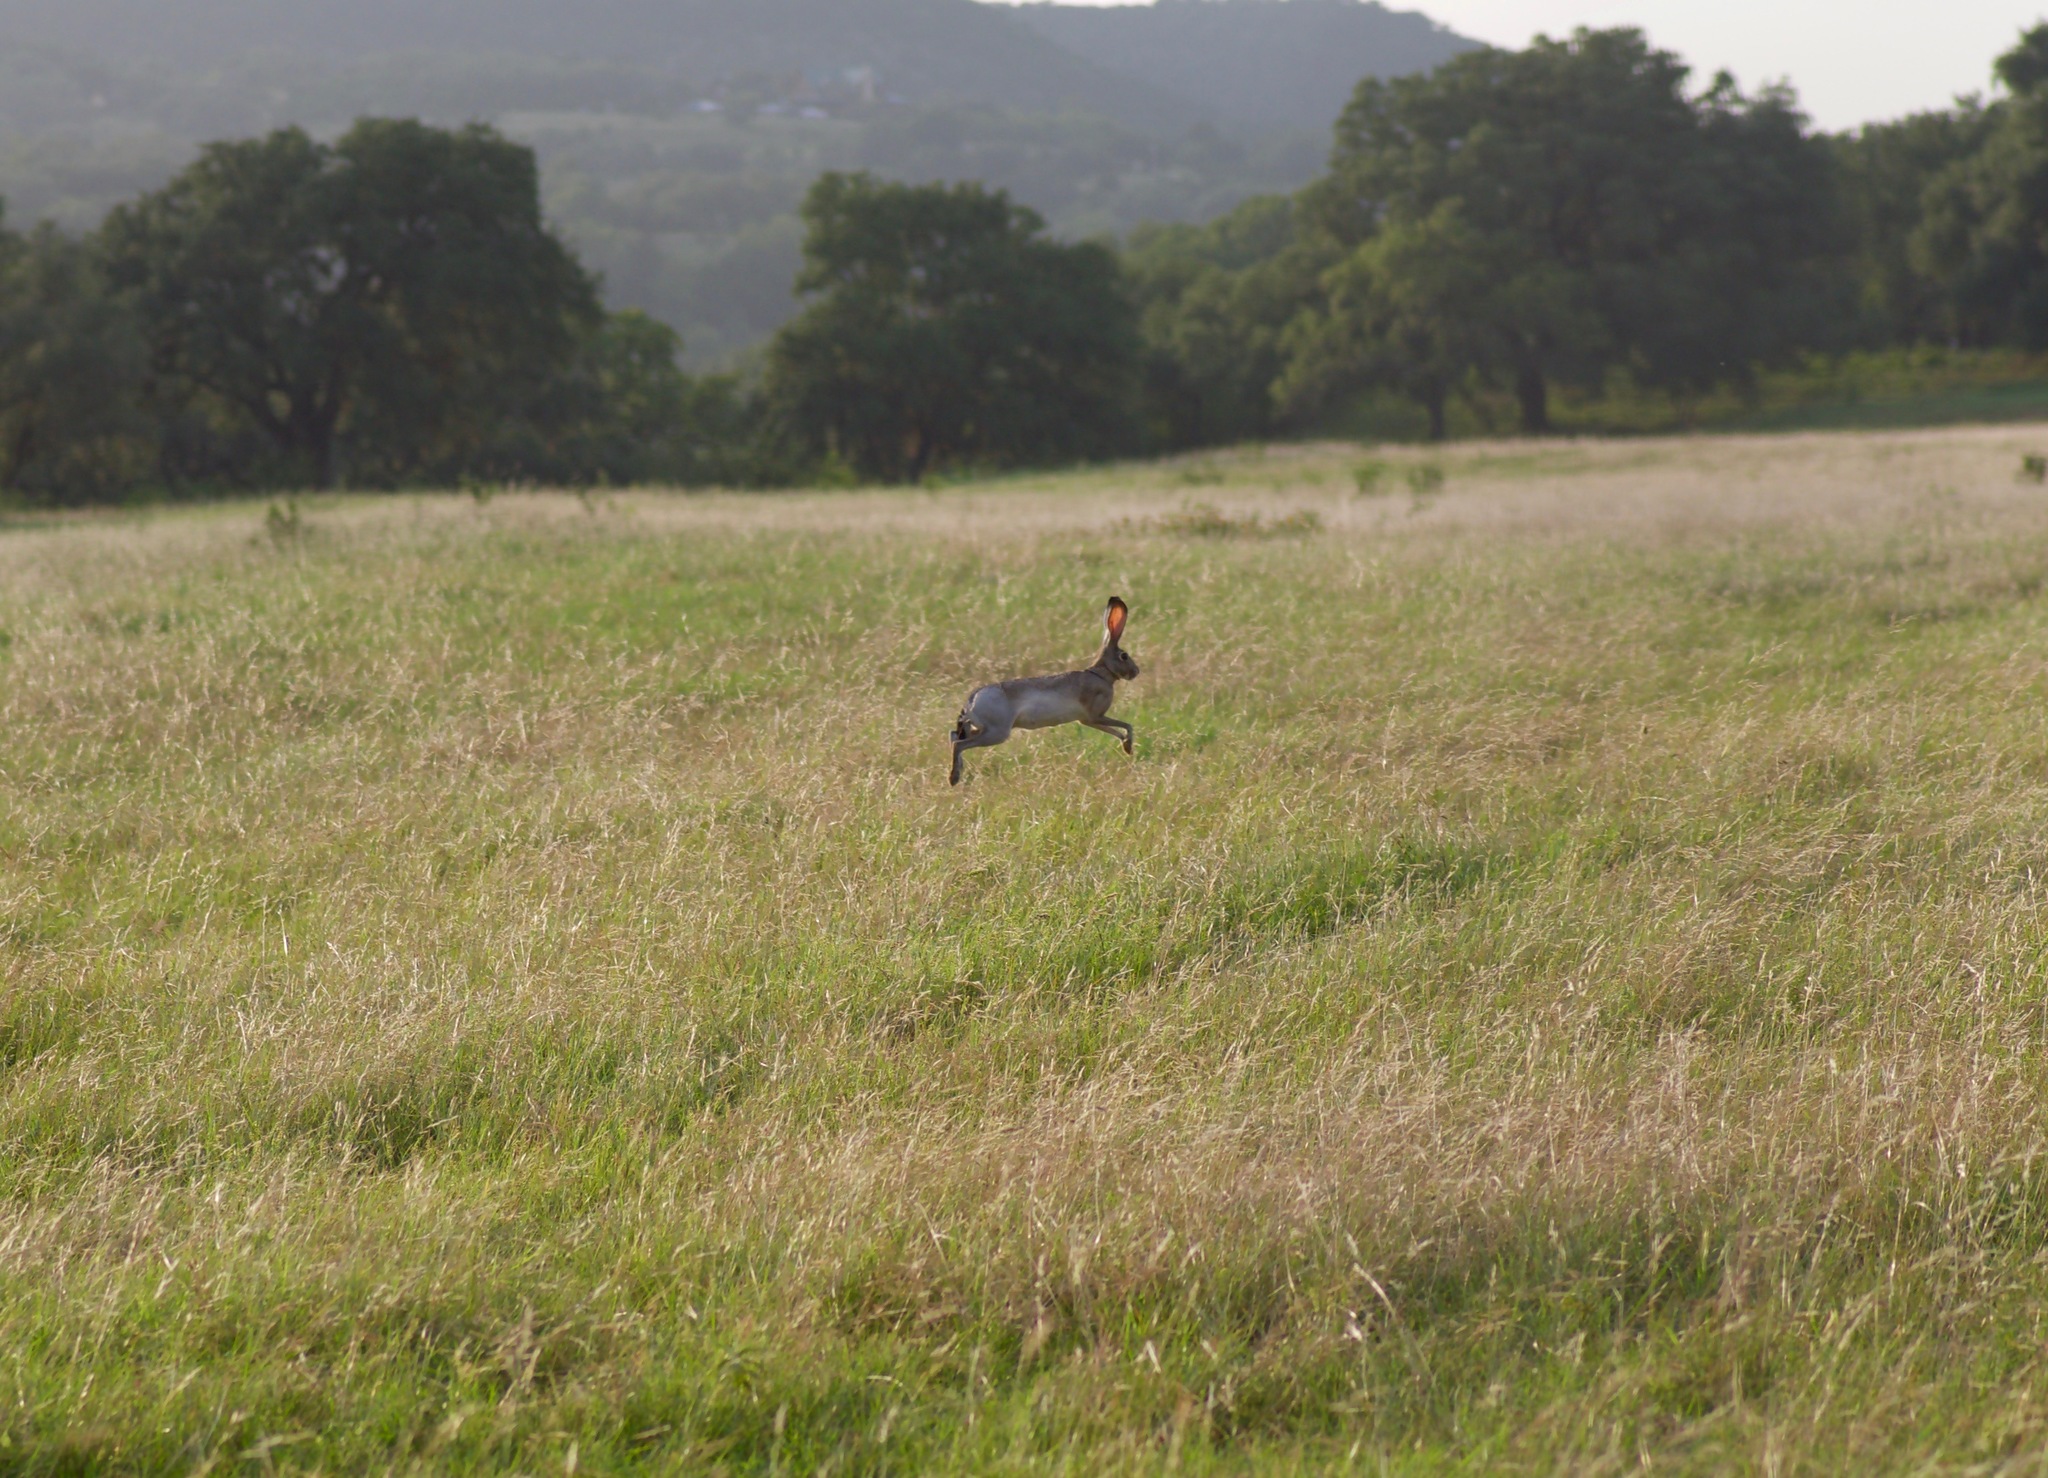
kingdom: Animalia
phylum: Chordata
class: Mammalia
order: Lagomorpha
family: Leporidae
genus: Lepus
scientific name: Lepus californicus
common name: Black-tailed jackrabbit
